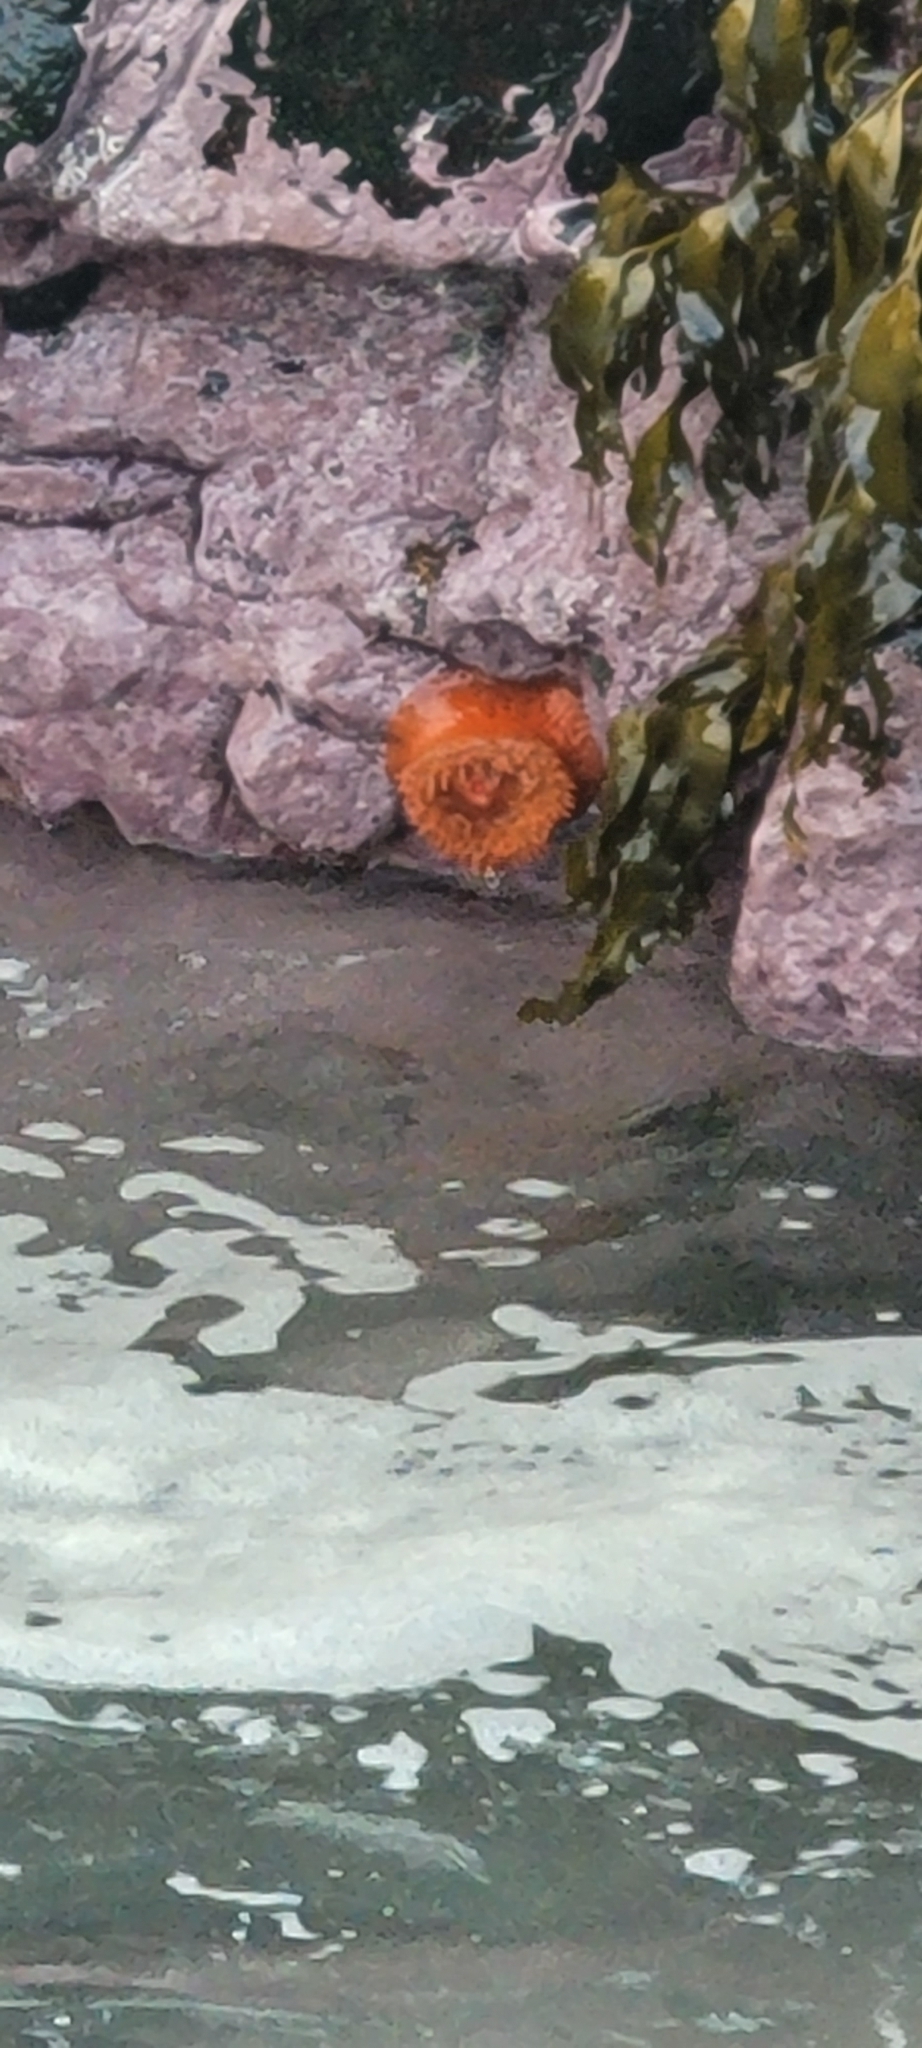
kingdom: Animalia
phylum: Cnidaria
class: Anthozoa
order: Actiniaria
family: Actiniidae
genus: Phymanthea
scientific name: Phymanthea pluvia
